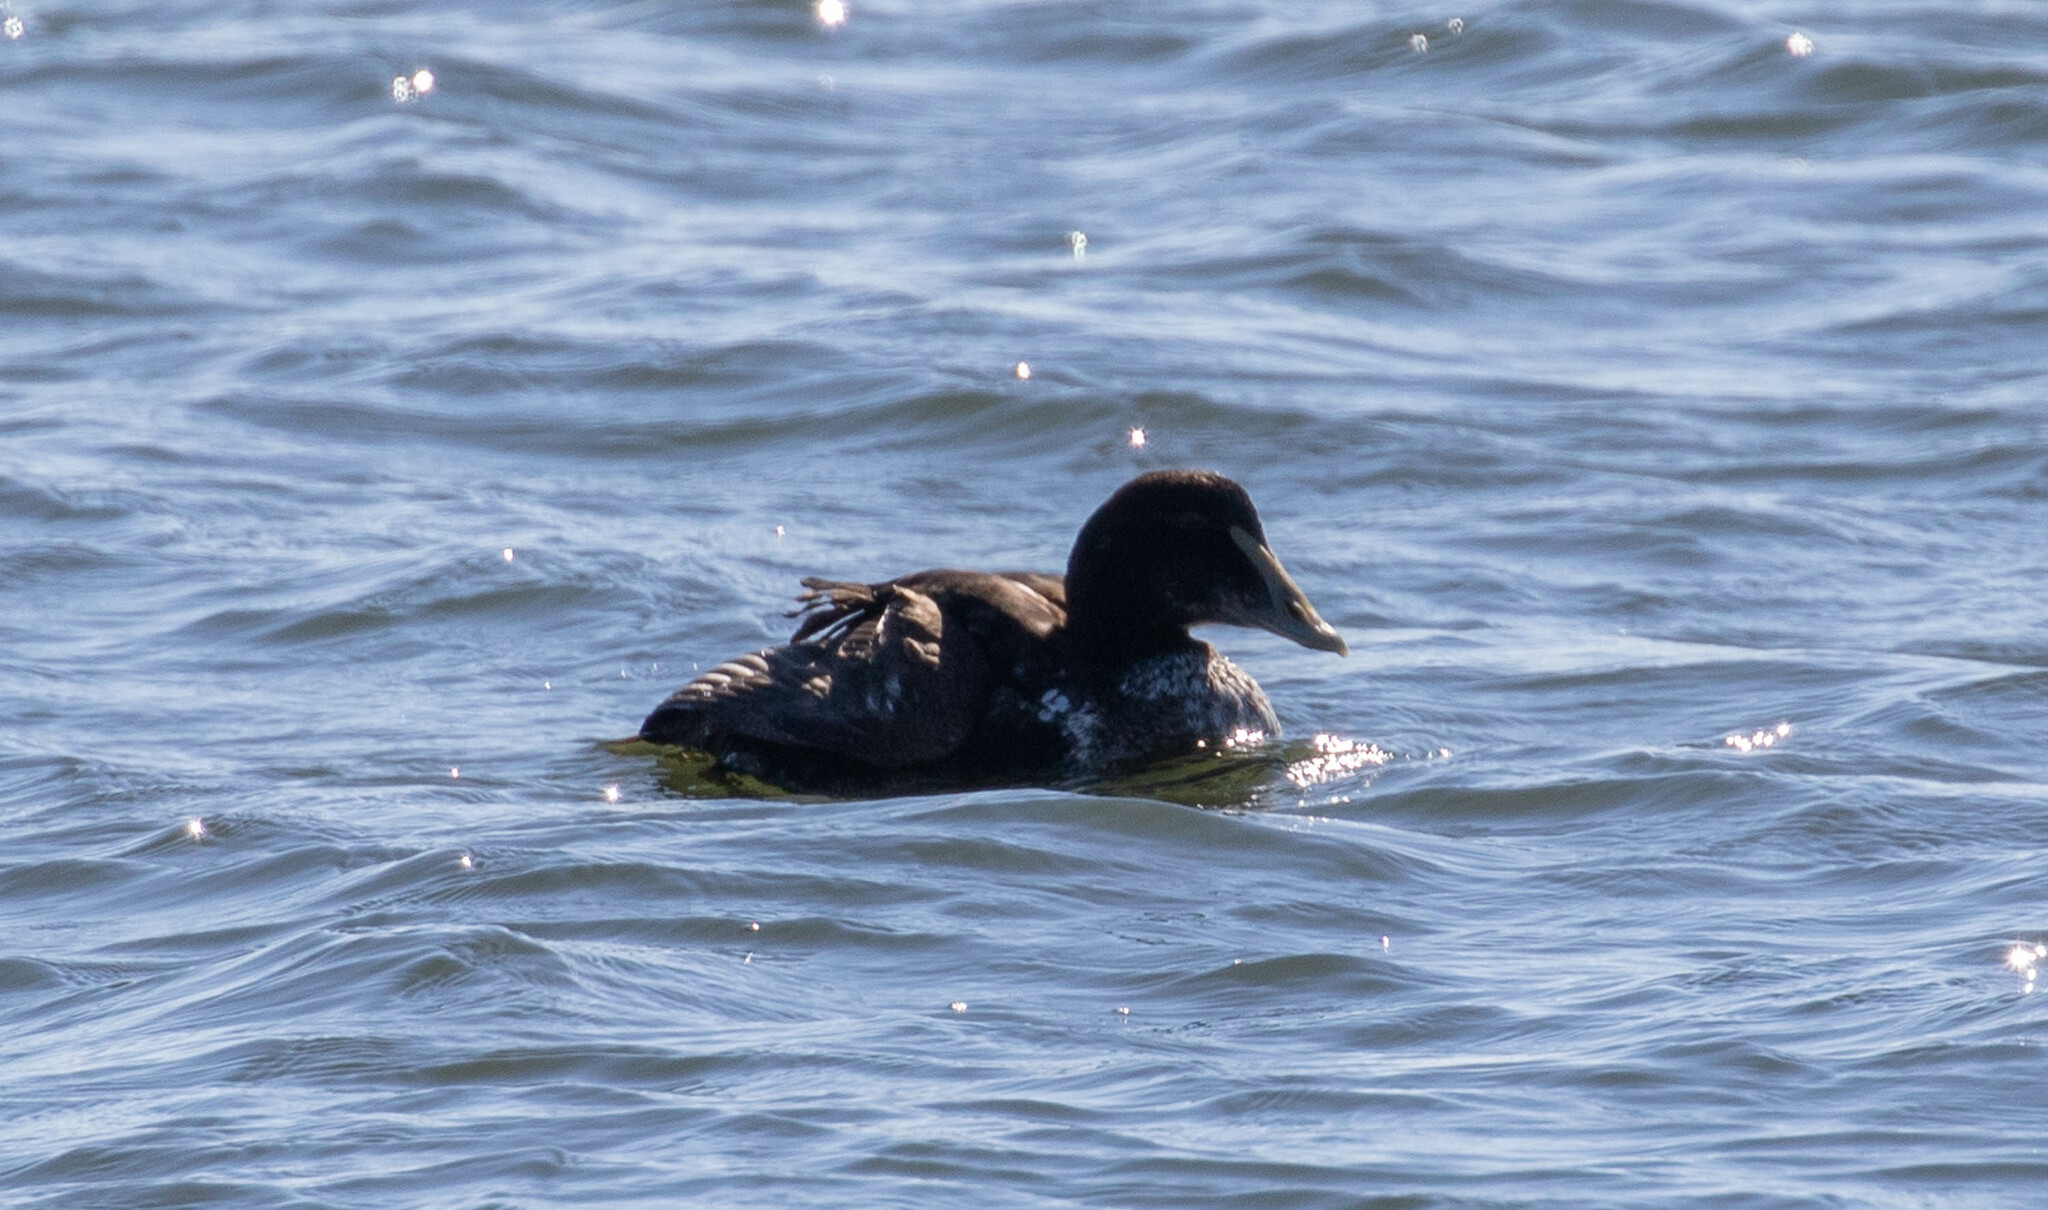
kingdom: Animalia
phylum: Chordata
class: Aves
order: Anseriformes
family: Anatidae
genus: Somateria
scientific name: Somateria mollissima
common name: Common eider
